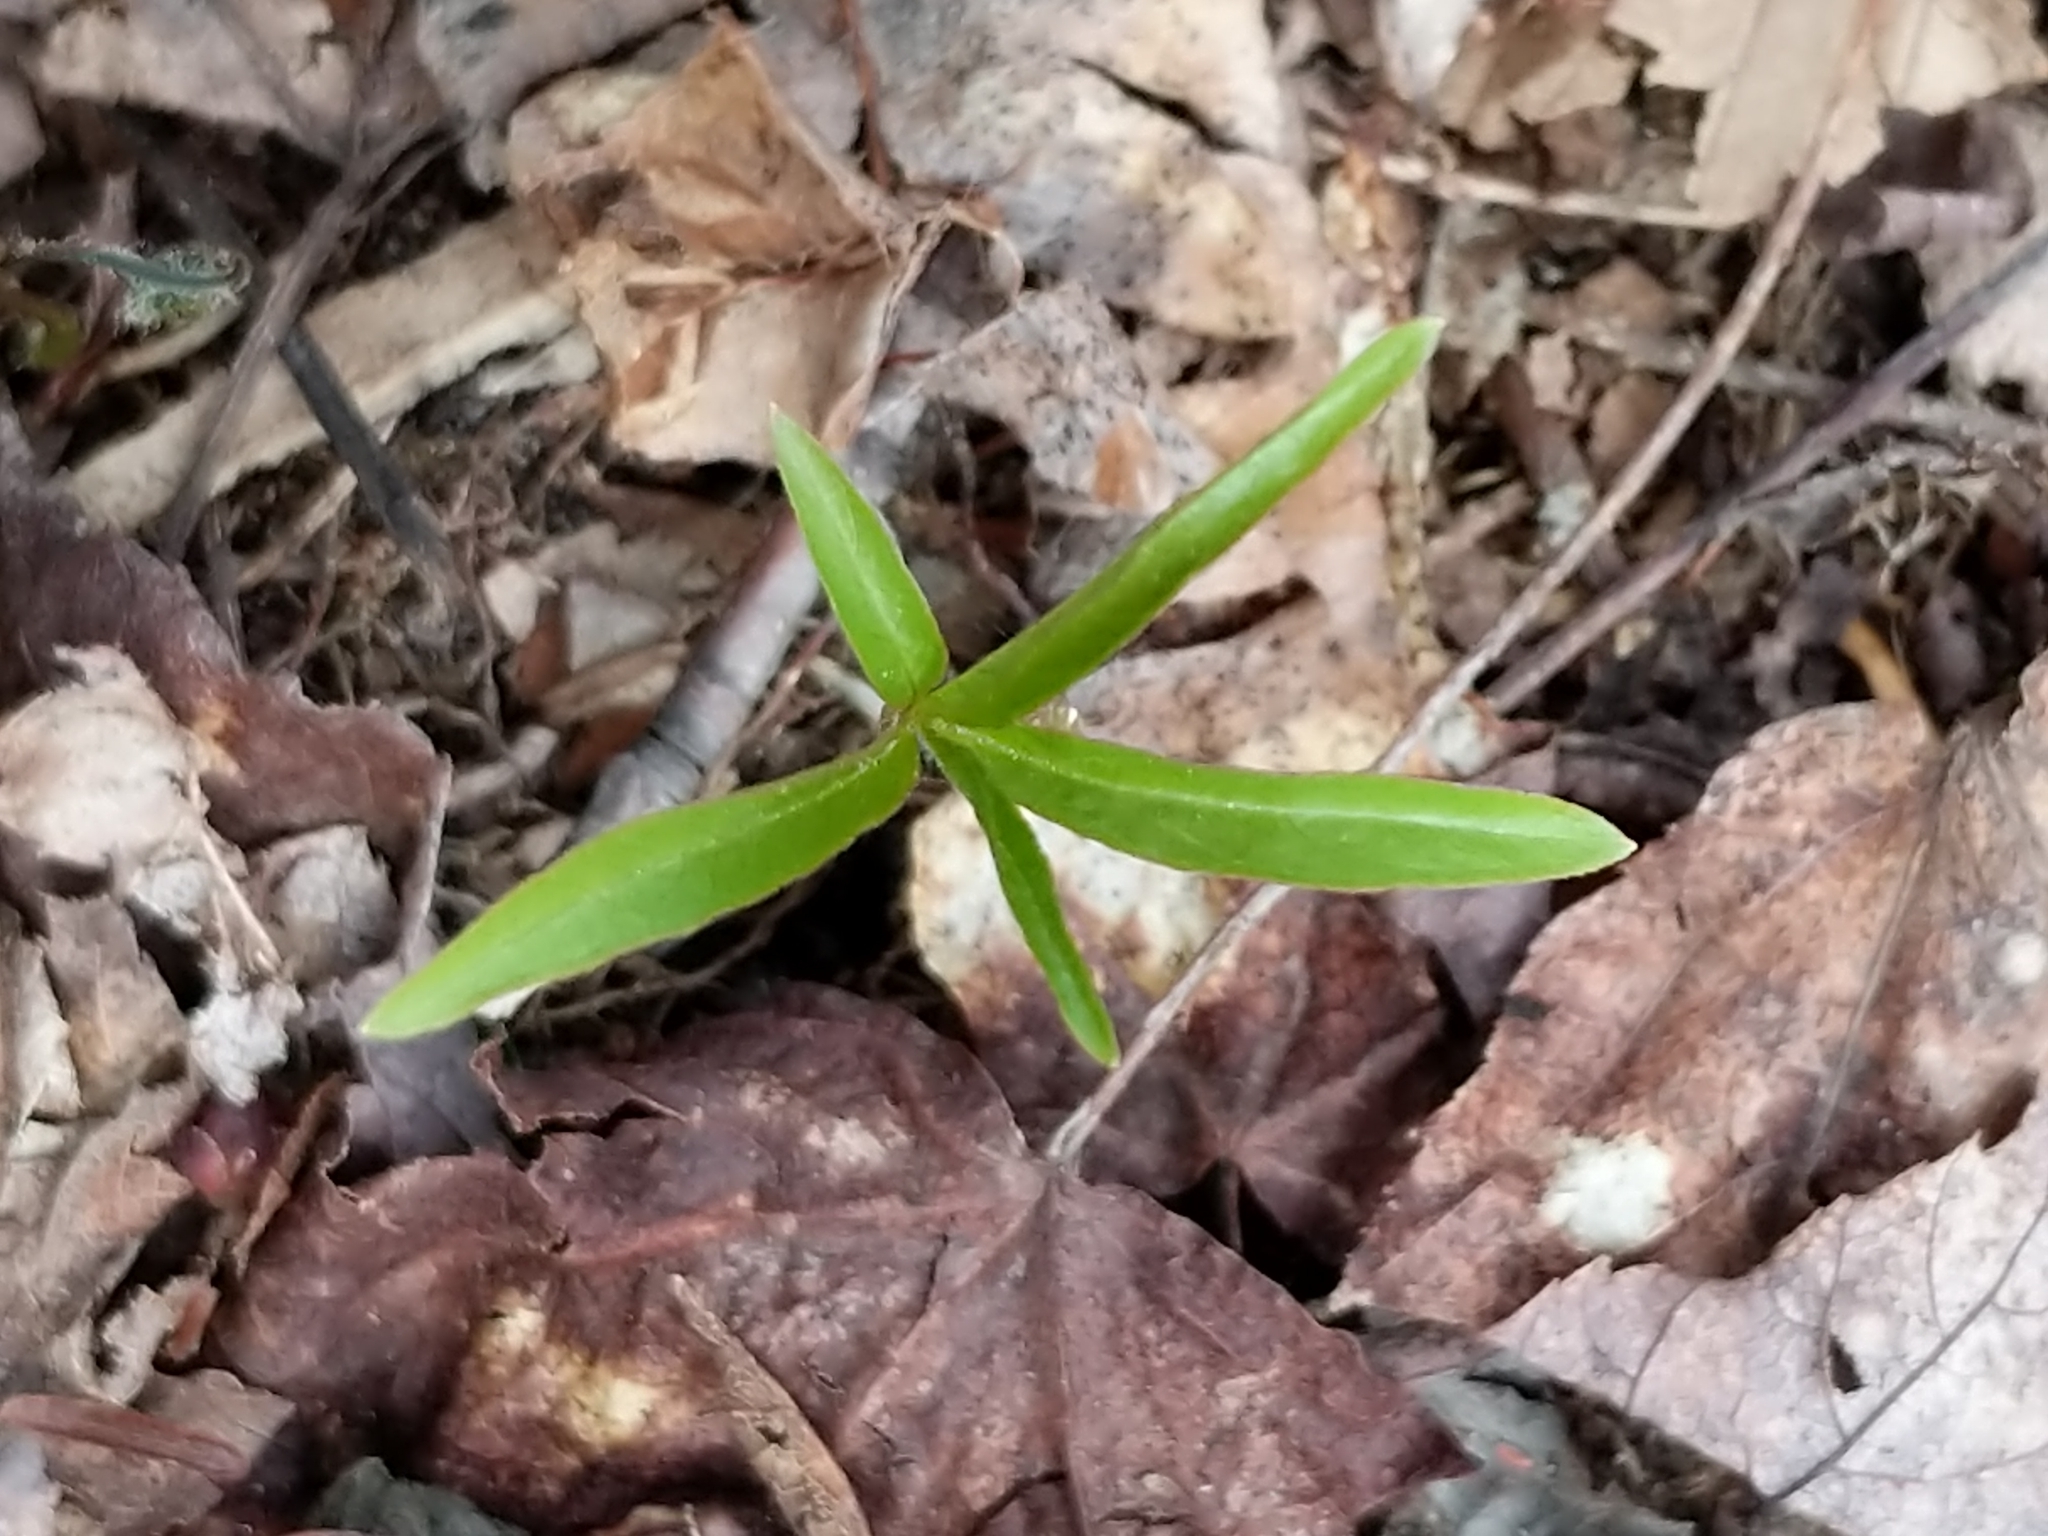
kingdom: Plantae
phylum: Tracheophyta
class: Magnoliopsida
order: Ericales
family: Primulaceae
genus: Lysimachia
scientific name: Lysimachia borealis
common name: American starflower
